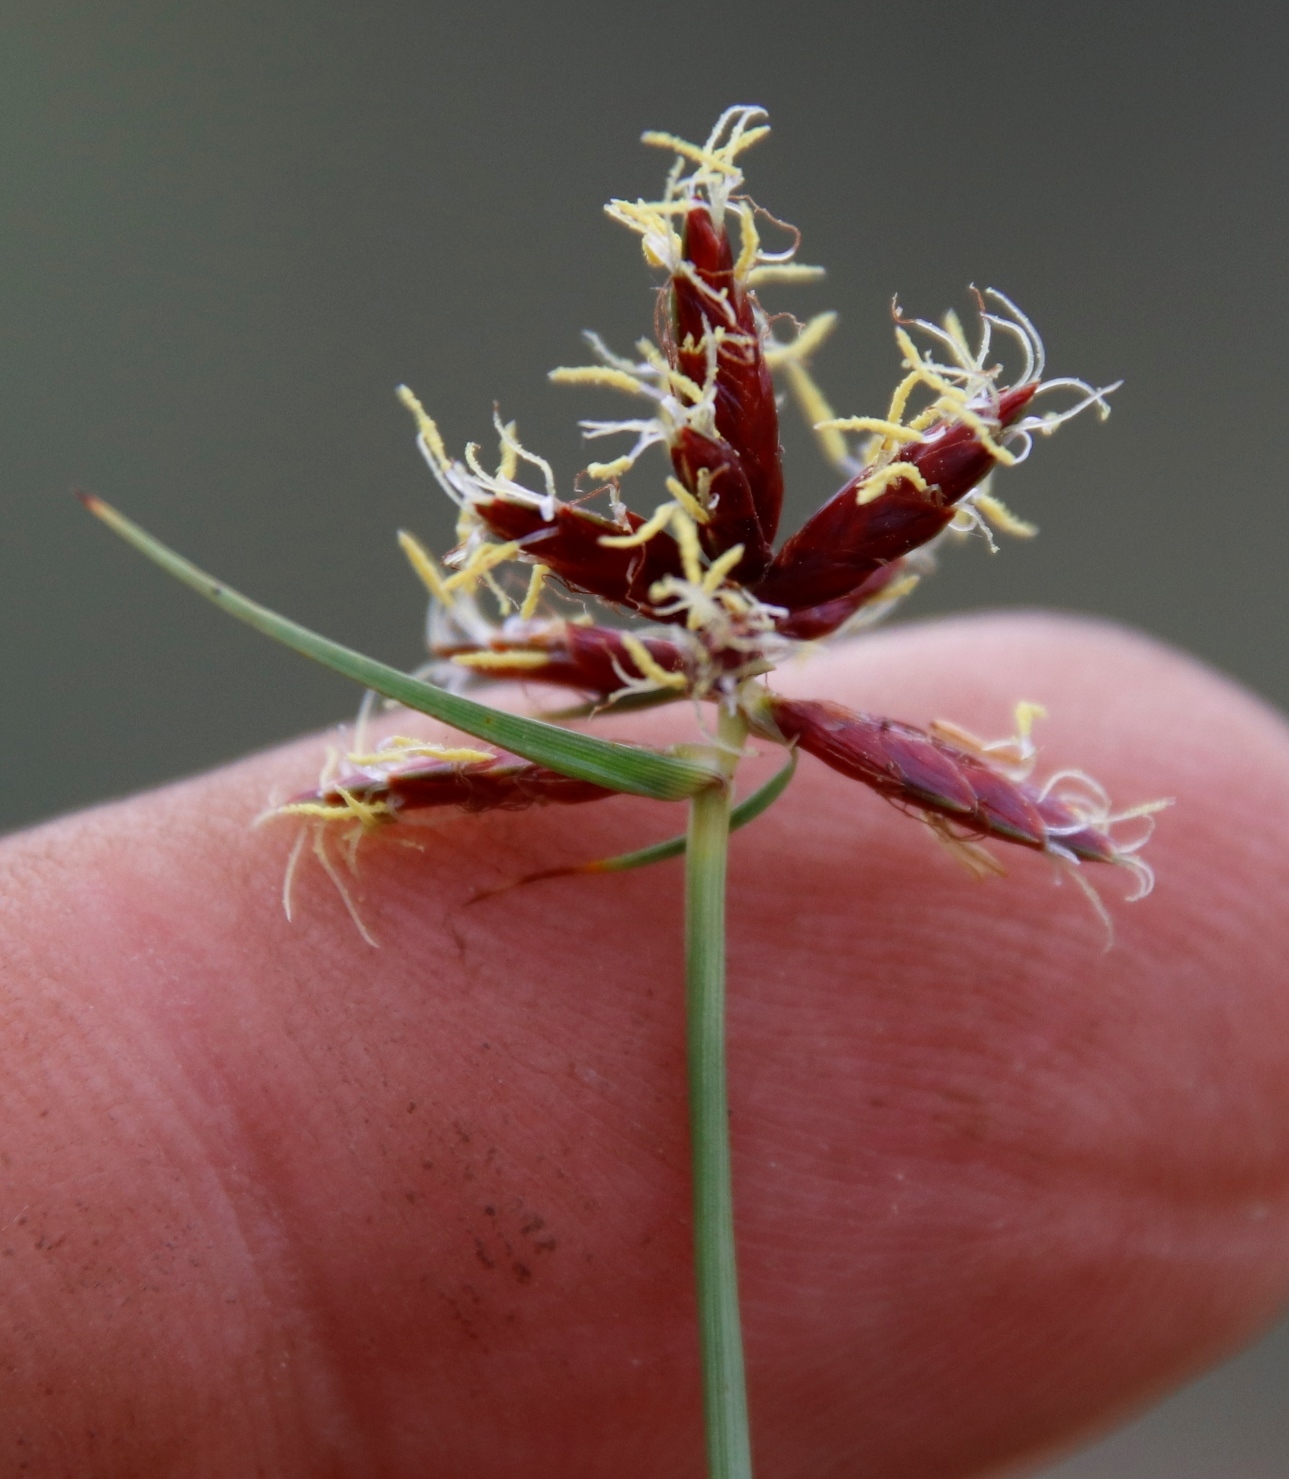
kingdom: Plantae
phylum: Tracheophyta
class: Liliopsida
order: Poales
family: Cyperaceae
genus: Cyperus
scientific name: Cyperus usitatus
